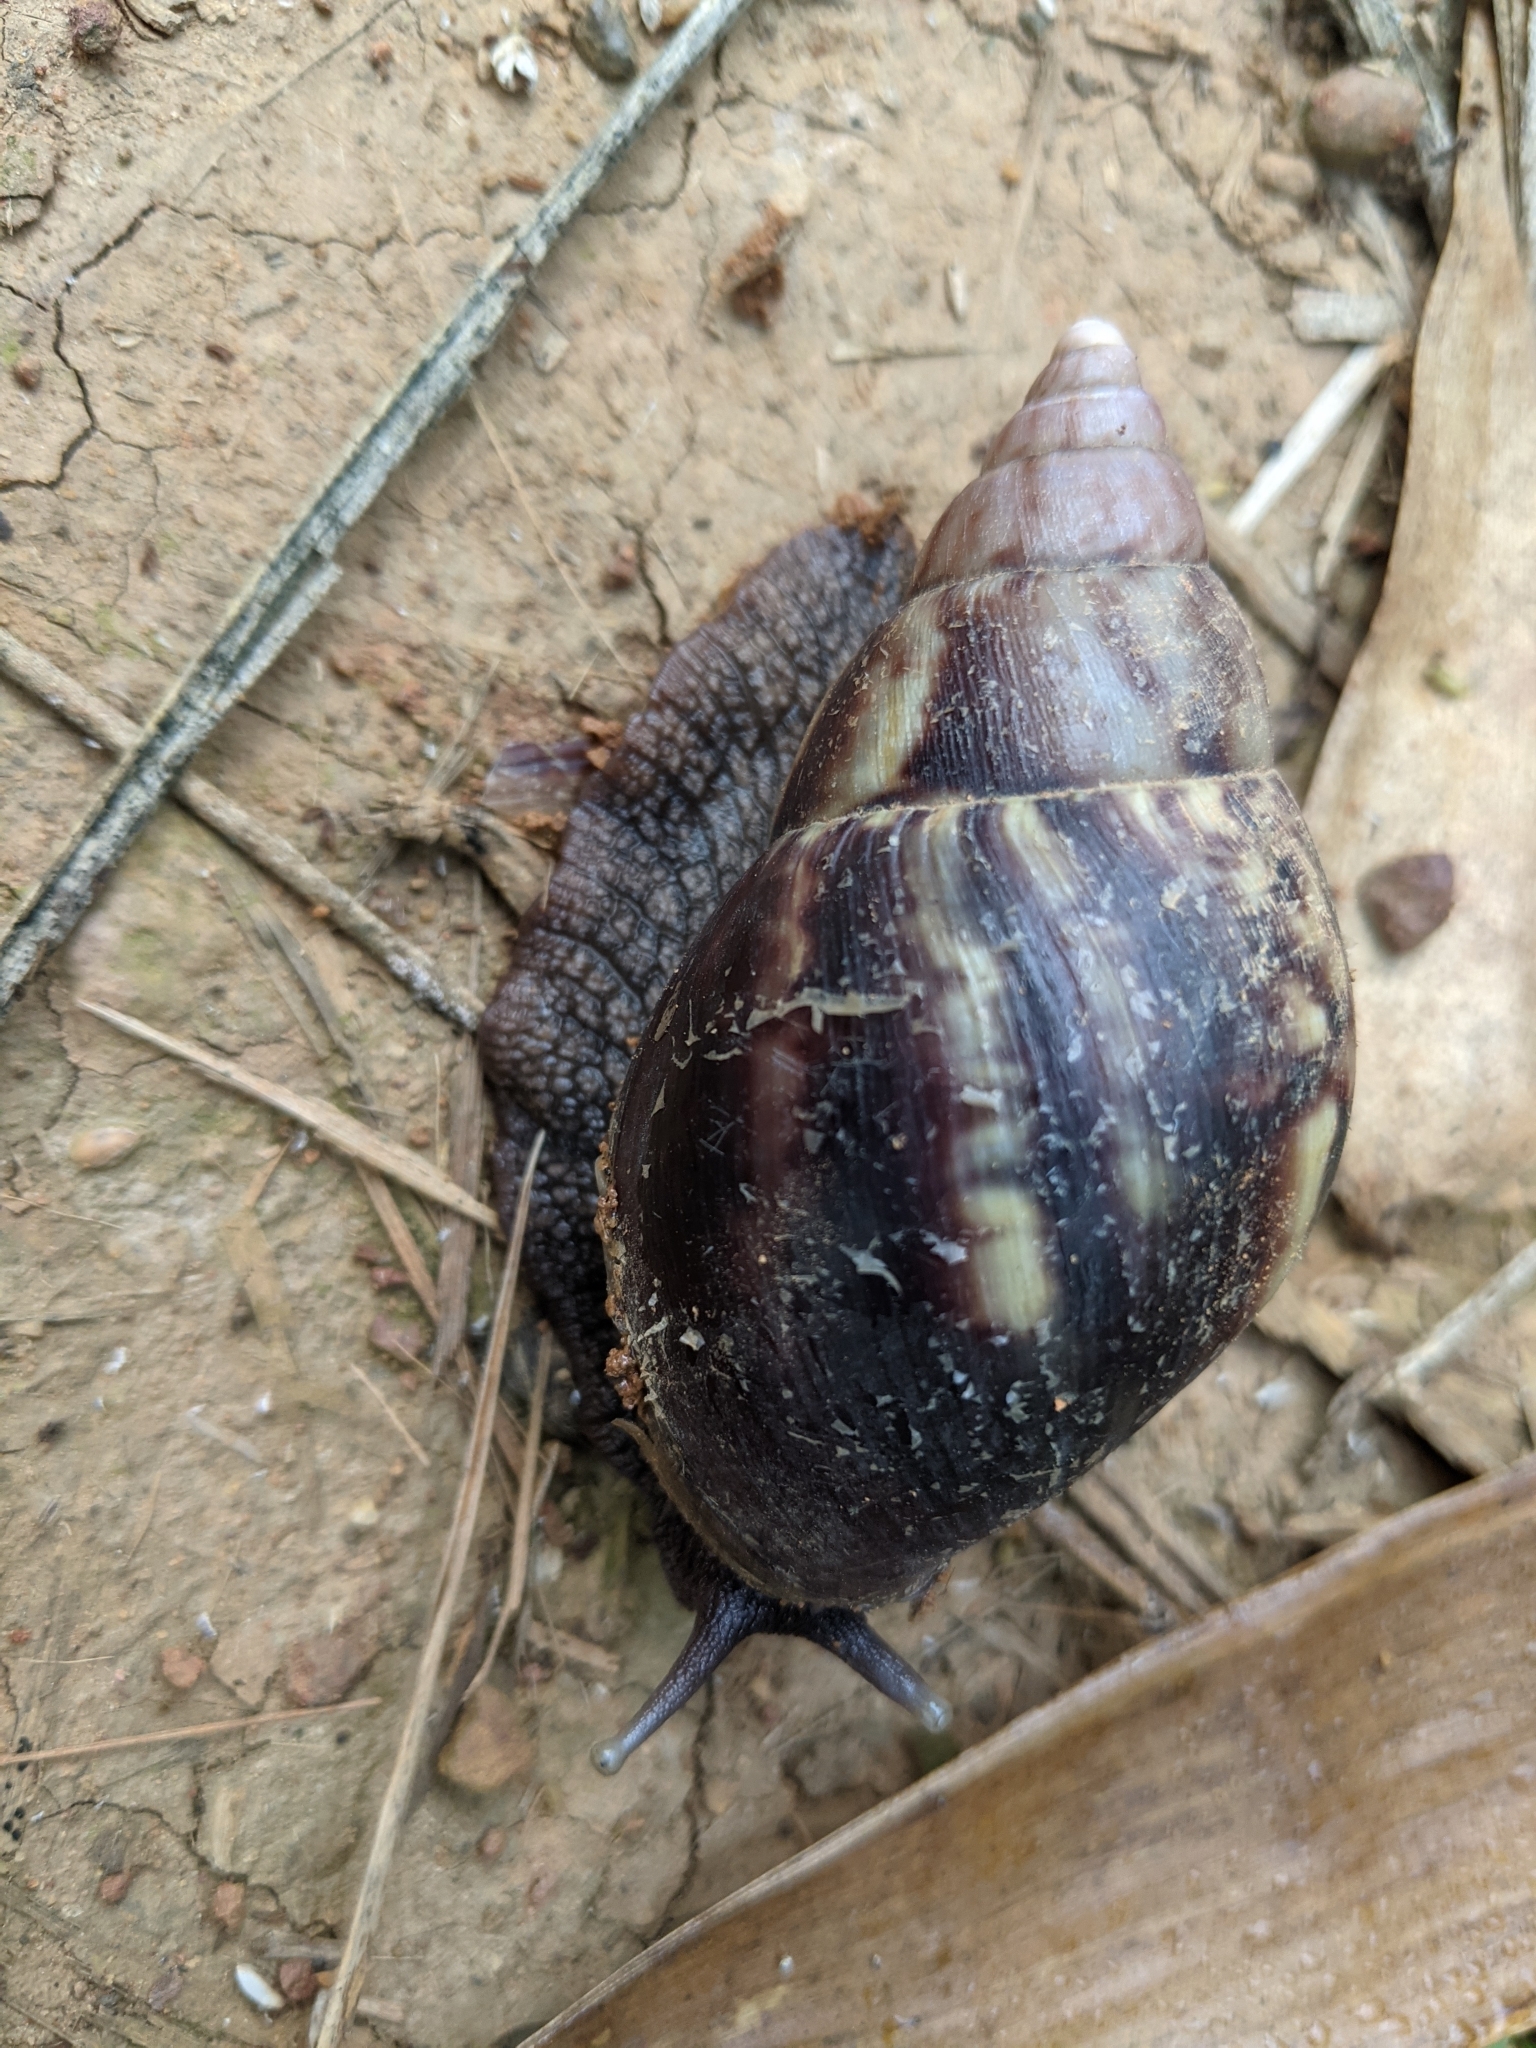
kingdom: Animalia
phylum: Mollusca
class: Gastropoda
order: Stylommatophora
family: Achatinidae
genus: Lissachatina
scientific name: Lissachatina fulica
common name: Giant african snail
